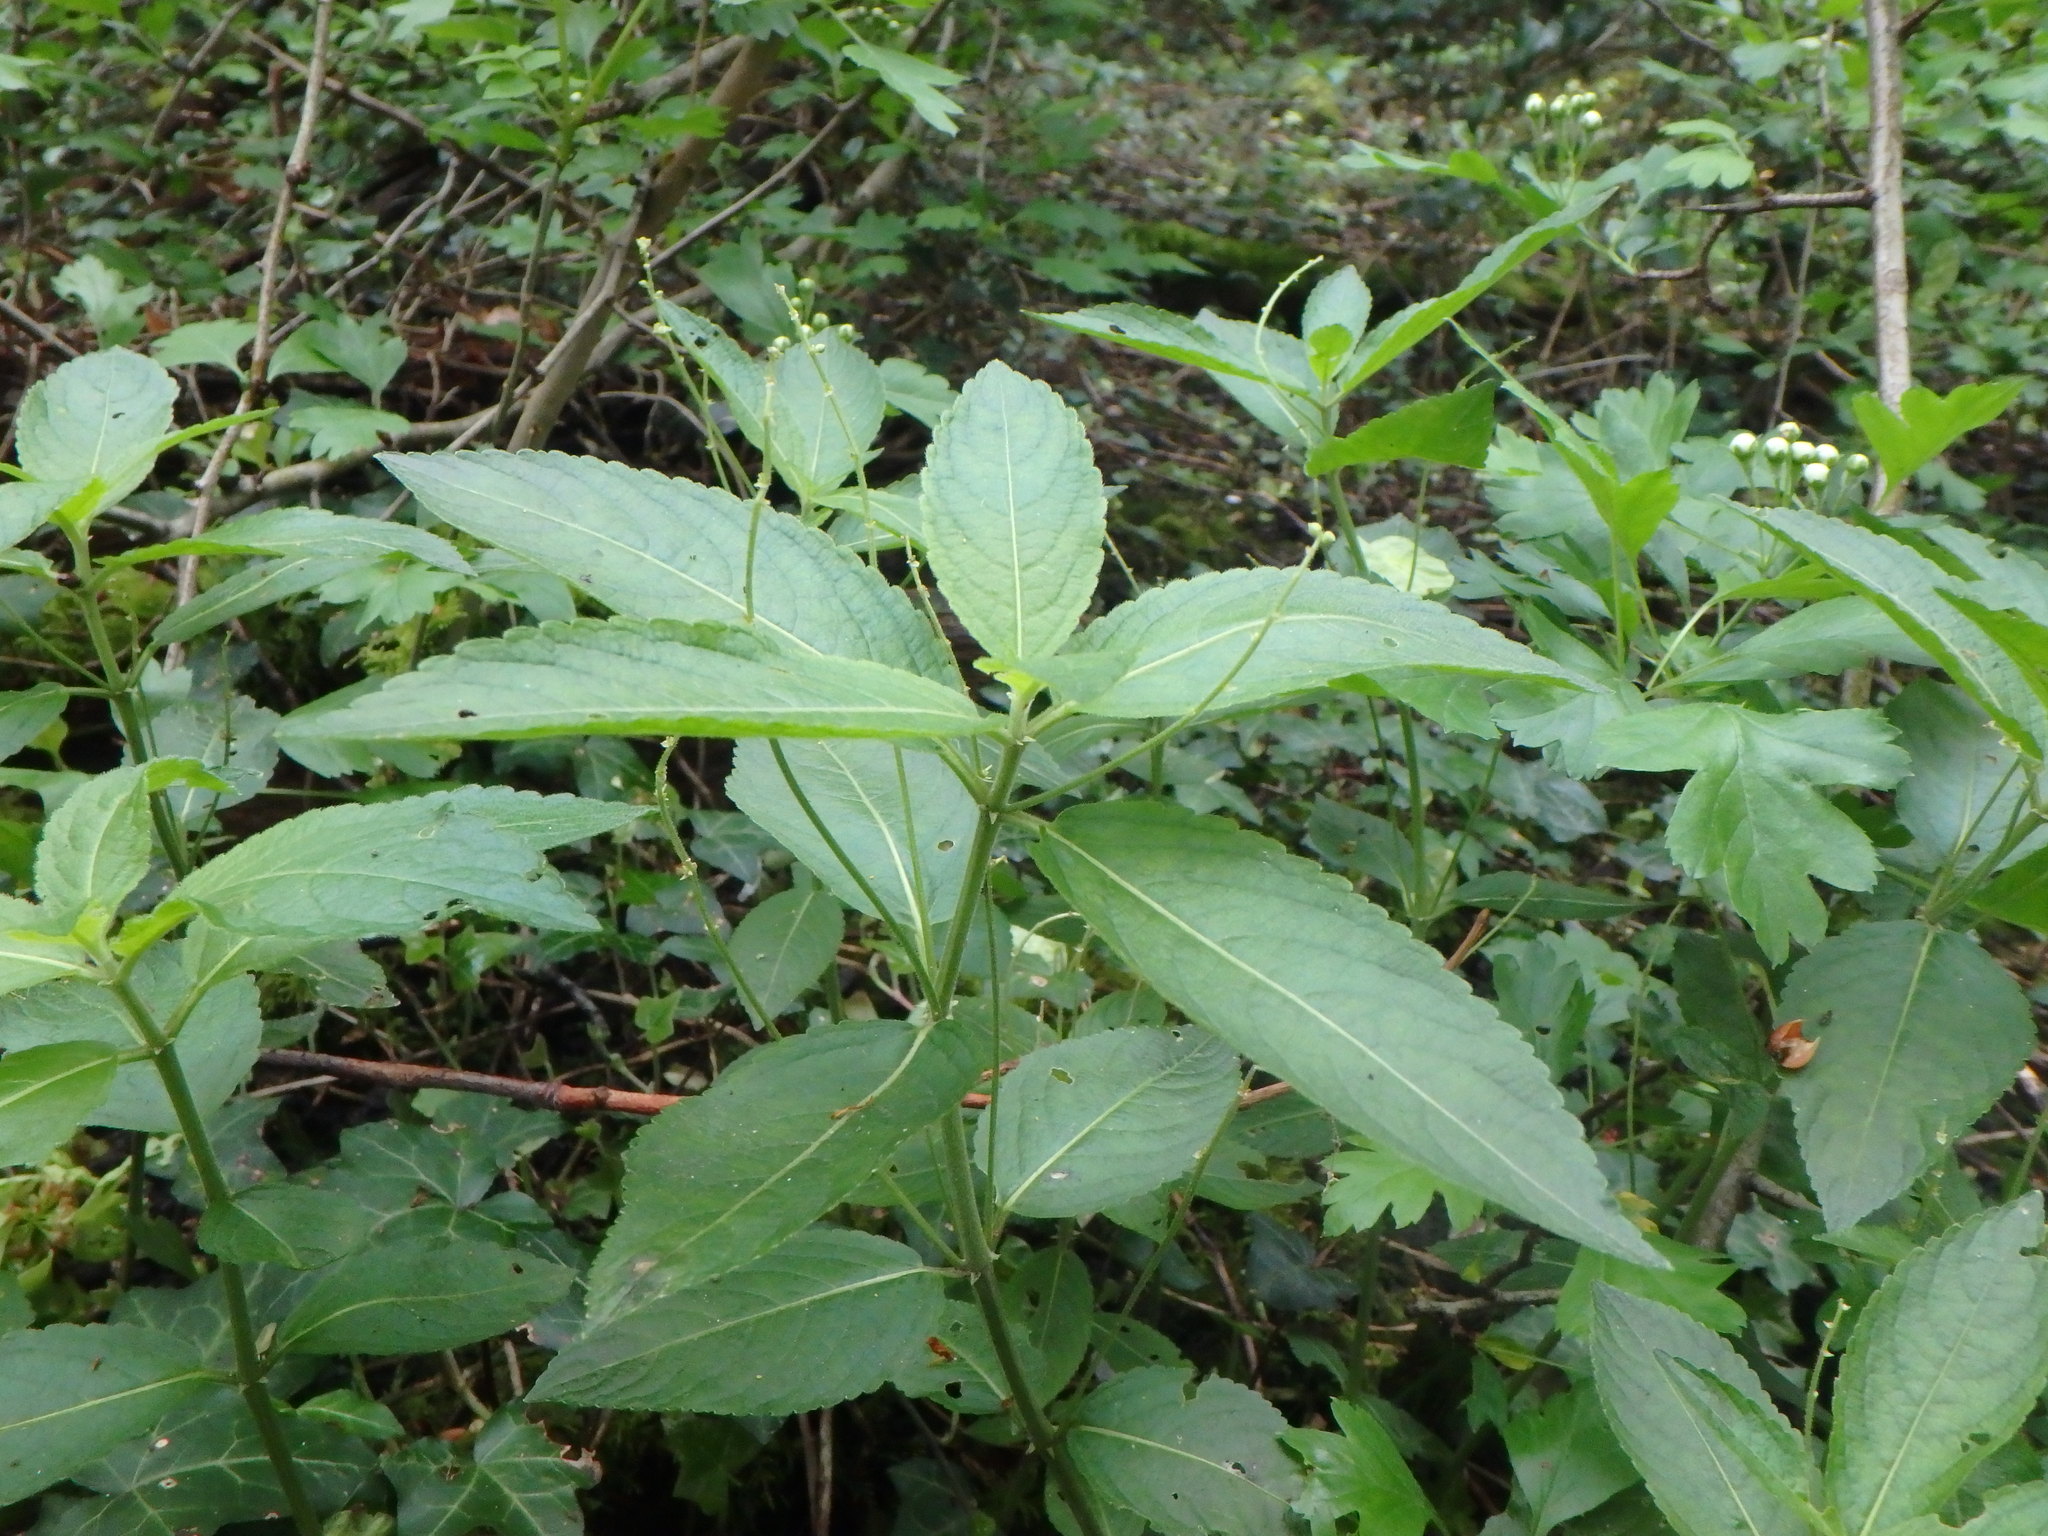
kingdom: Plantae
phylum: Tracheophyta
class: Magnoliopsida
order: Malpighiales
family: Euphorbiaceae
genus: Mercurialis
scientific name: Mercurialis perennis
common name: Dog mercury
